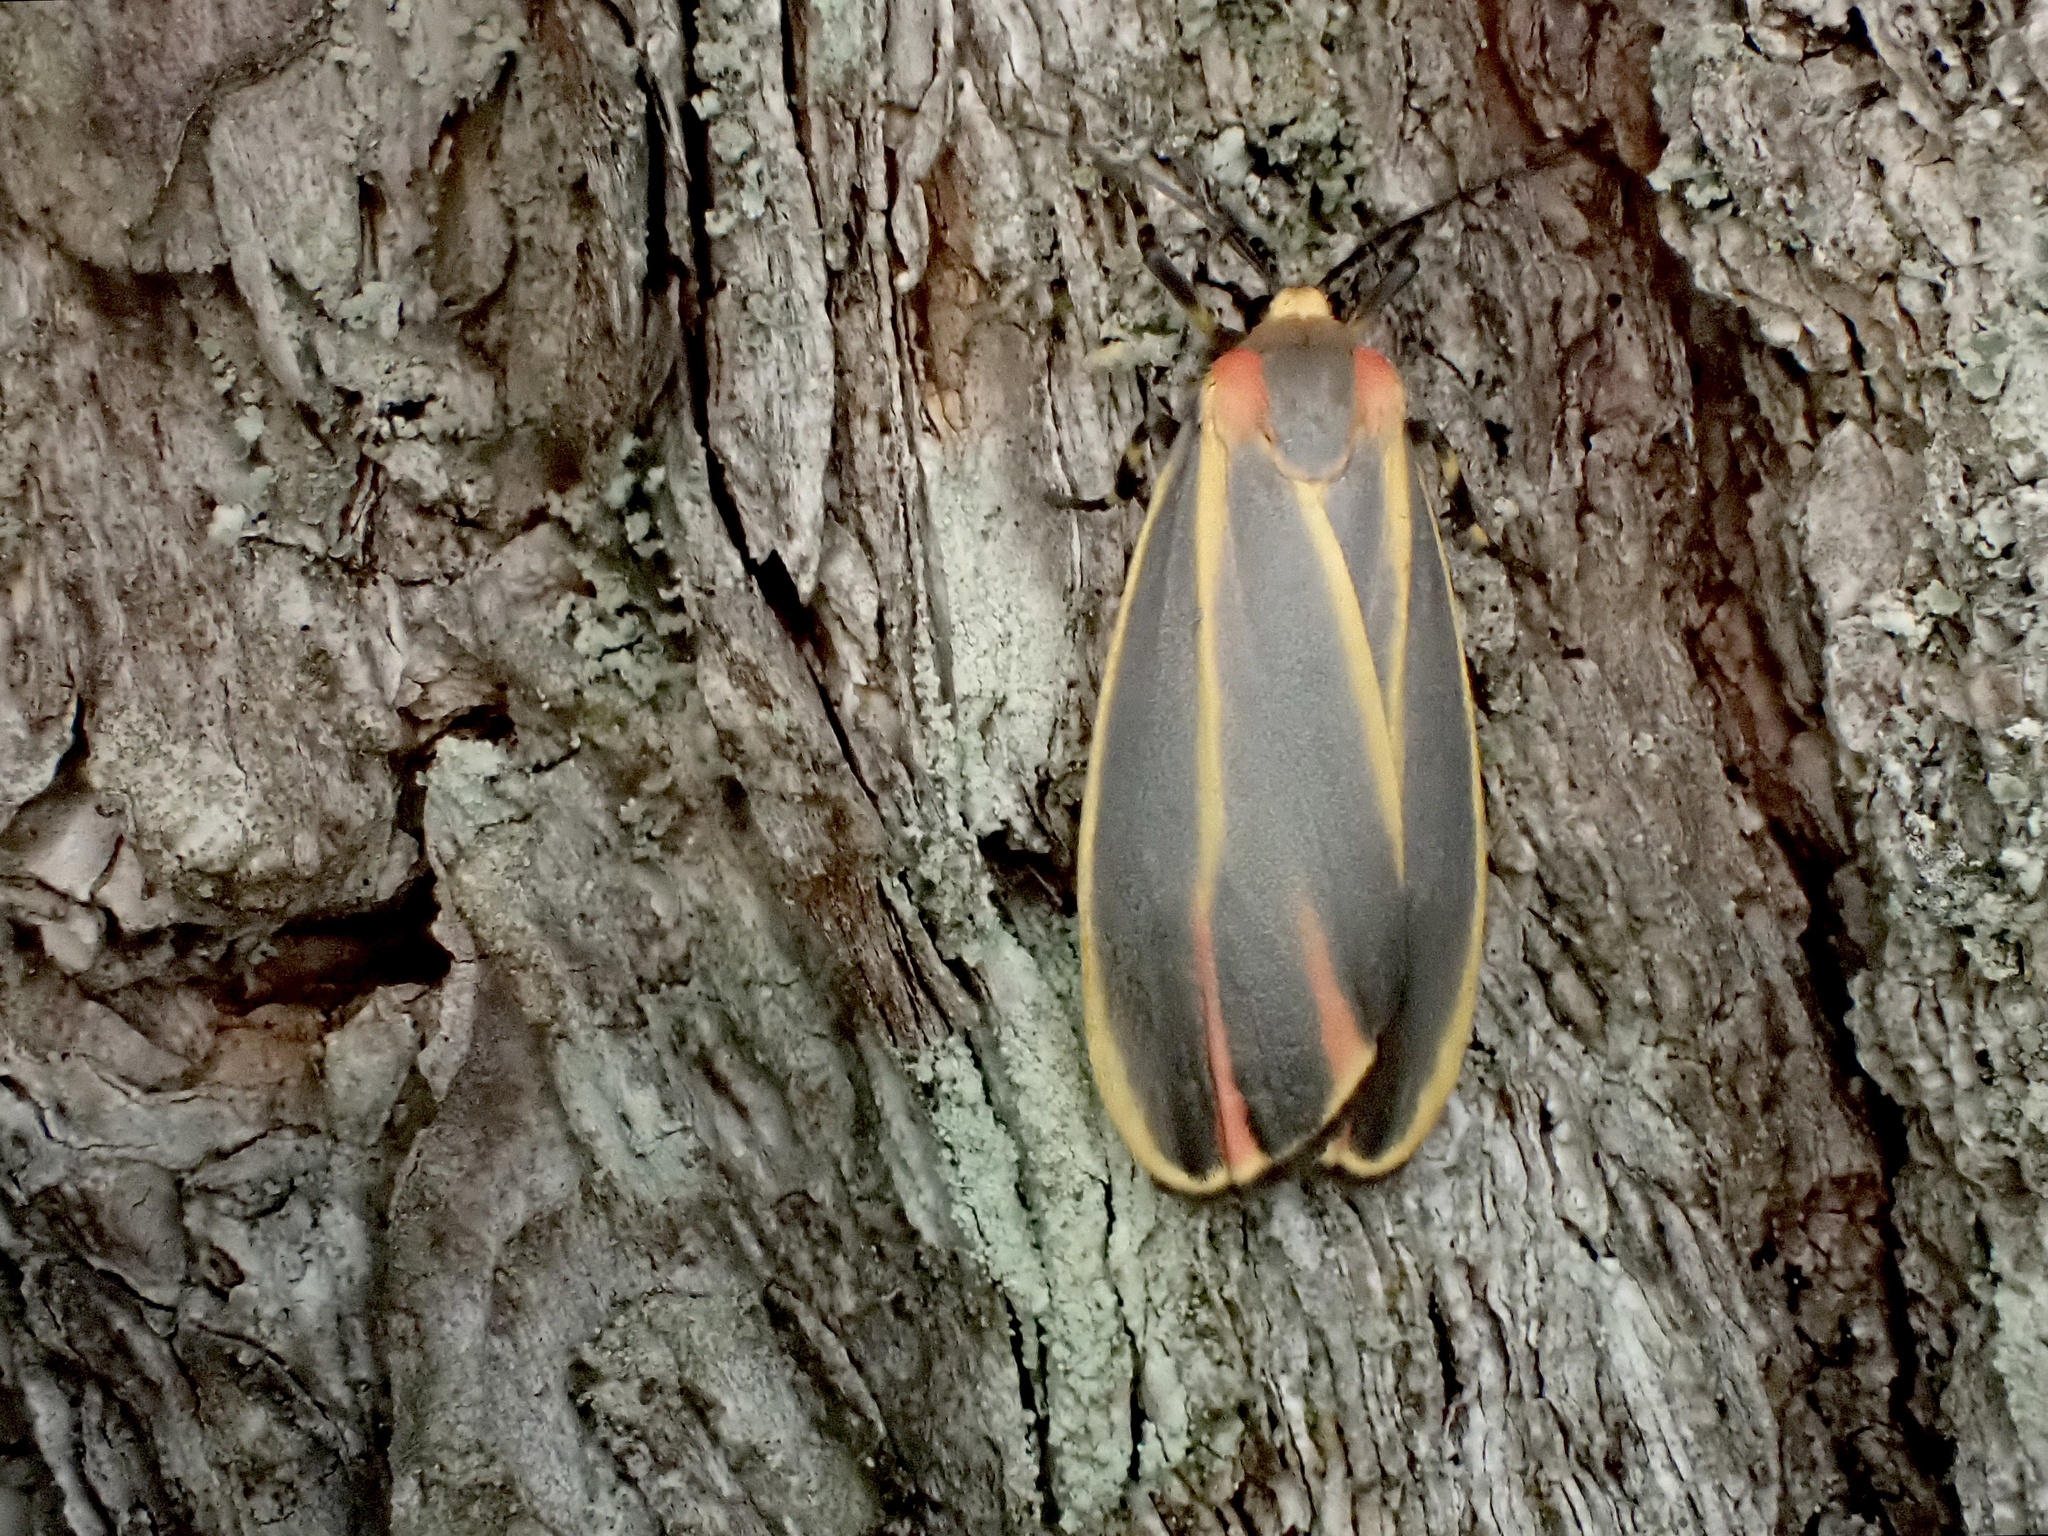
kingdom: Animalia
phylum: Arthropoda
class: Insecta
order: Lepidoptera
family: Erebidae
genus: Hypoprepia
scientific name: Hypoprepia fucosa
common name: Painted lichen moth
